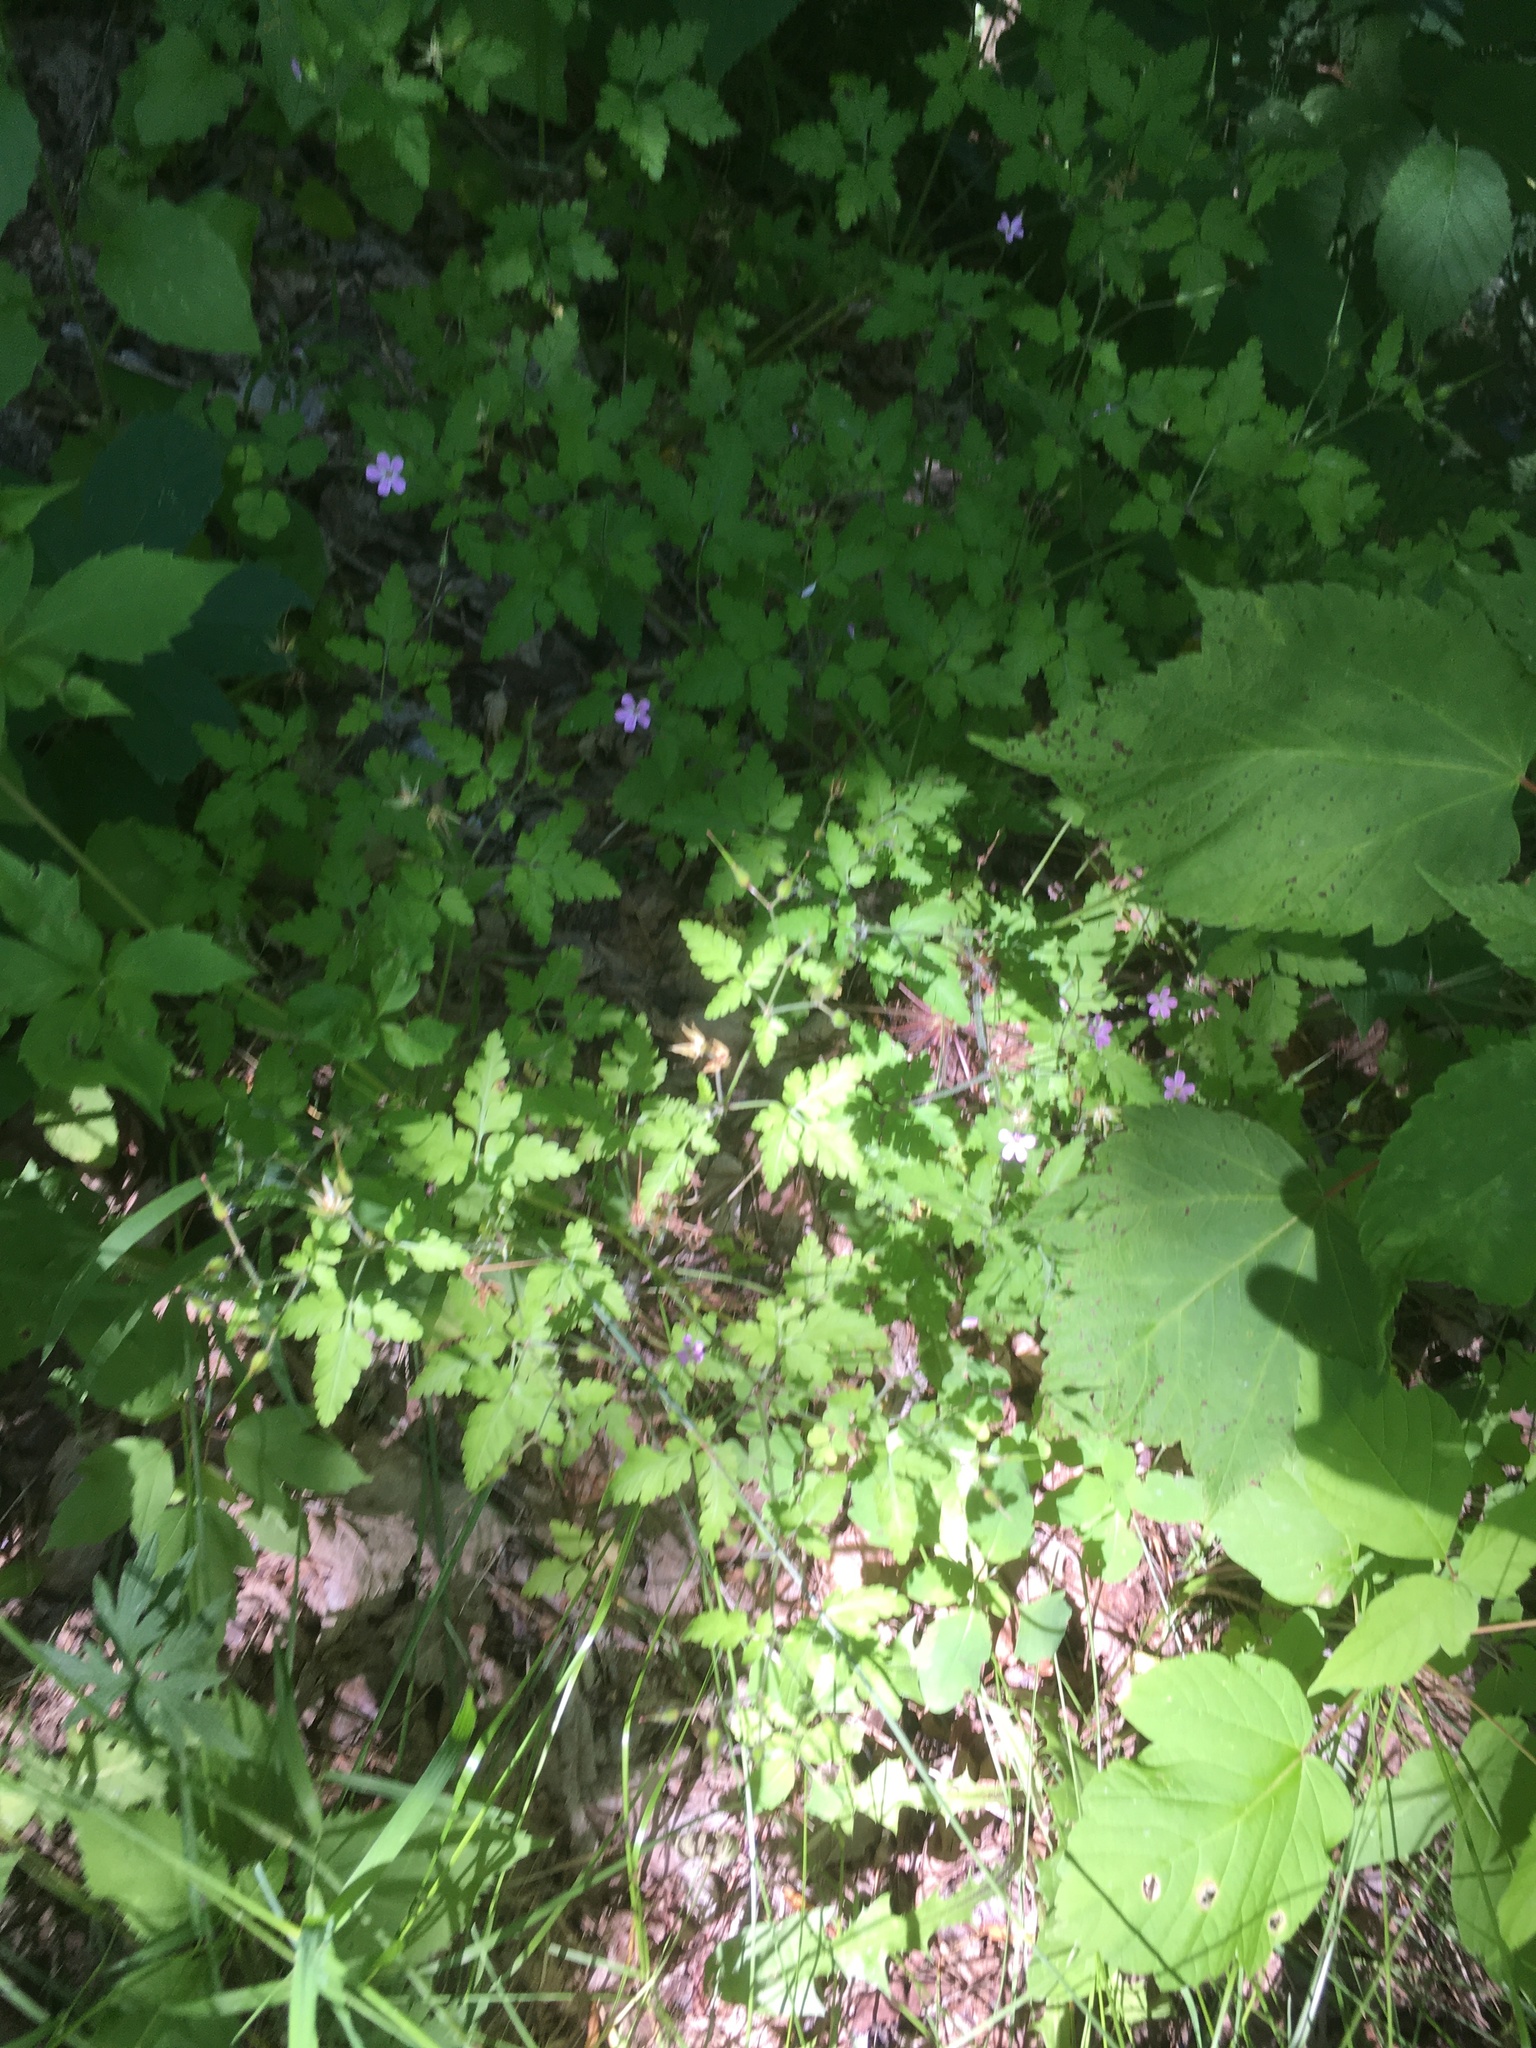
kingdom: Plantae
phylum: Tracheophyta
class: Magnoliopsida
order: Geraniales
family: Geraniaceae
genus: Geranium
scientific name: Geranium robertianum
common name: Herb-robert
